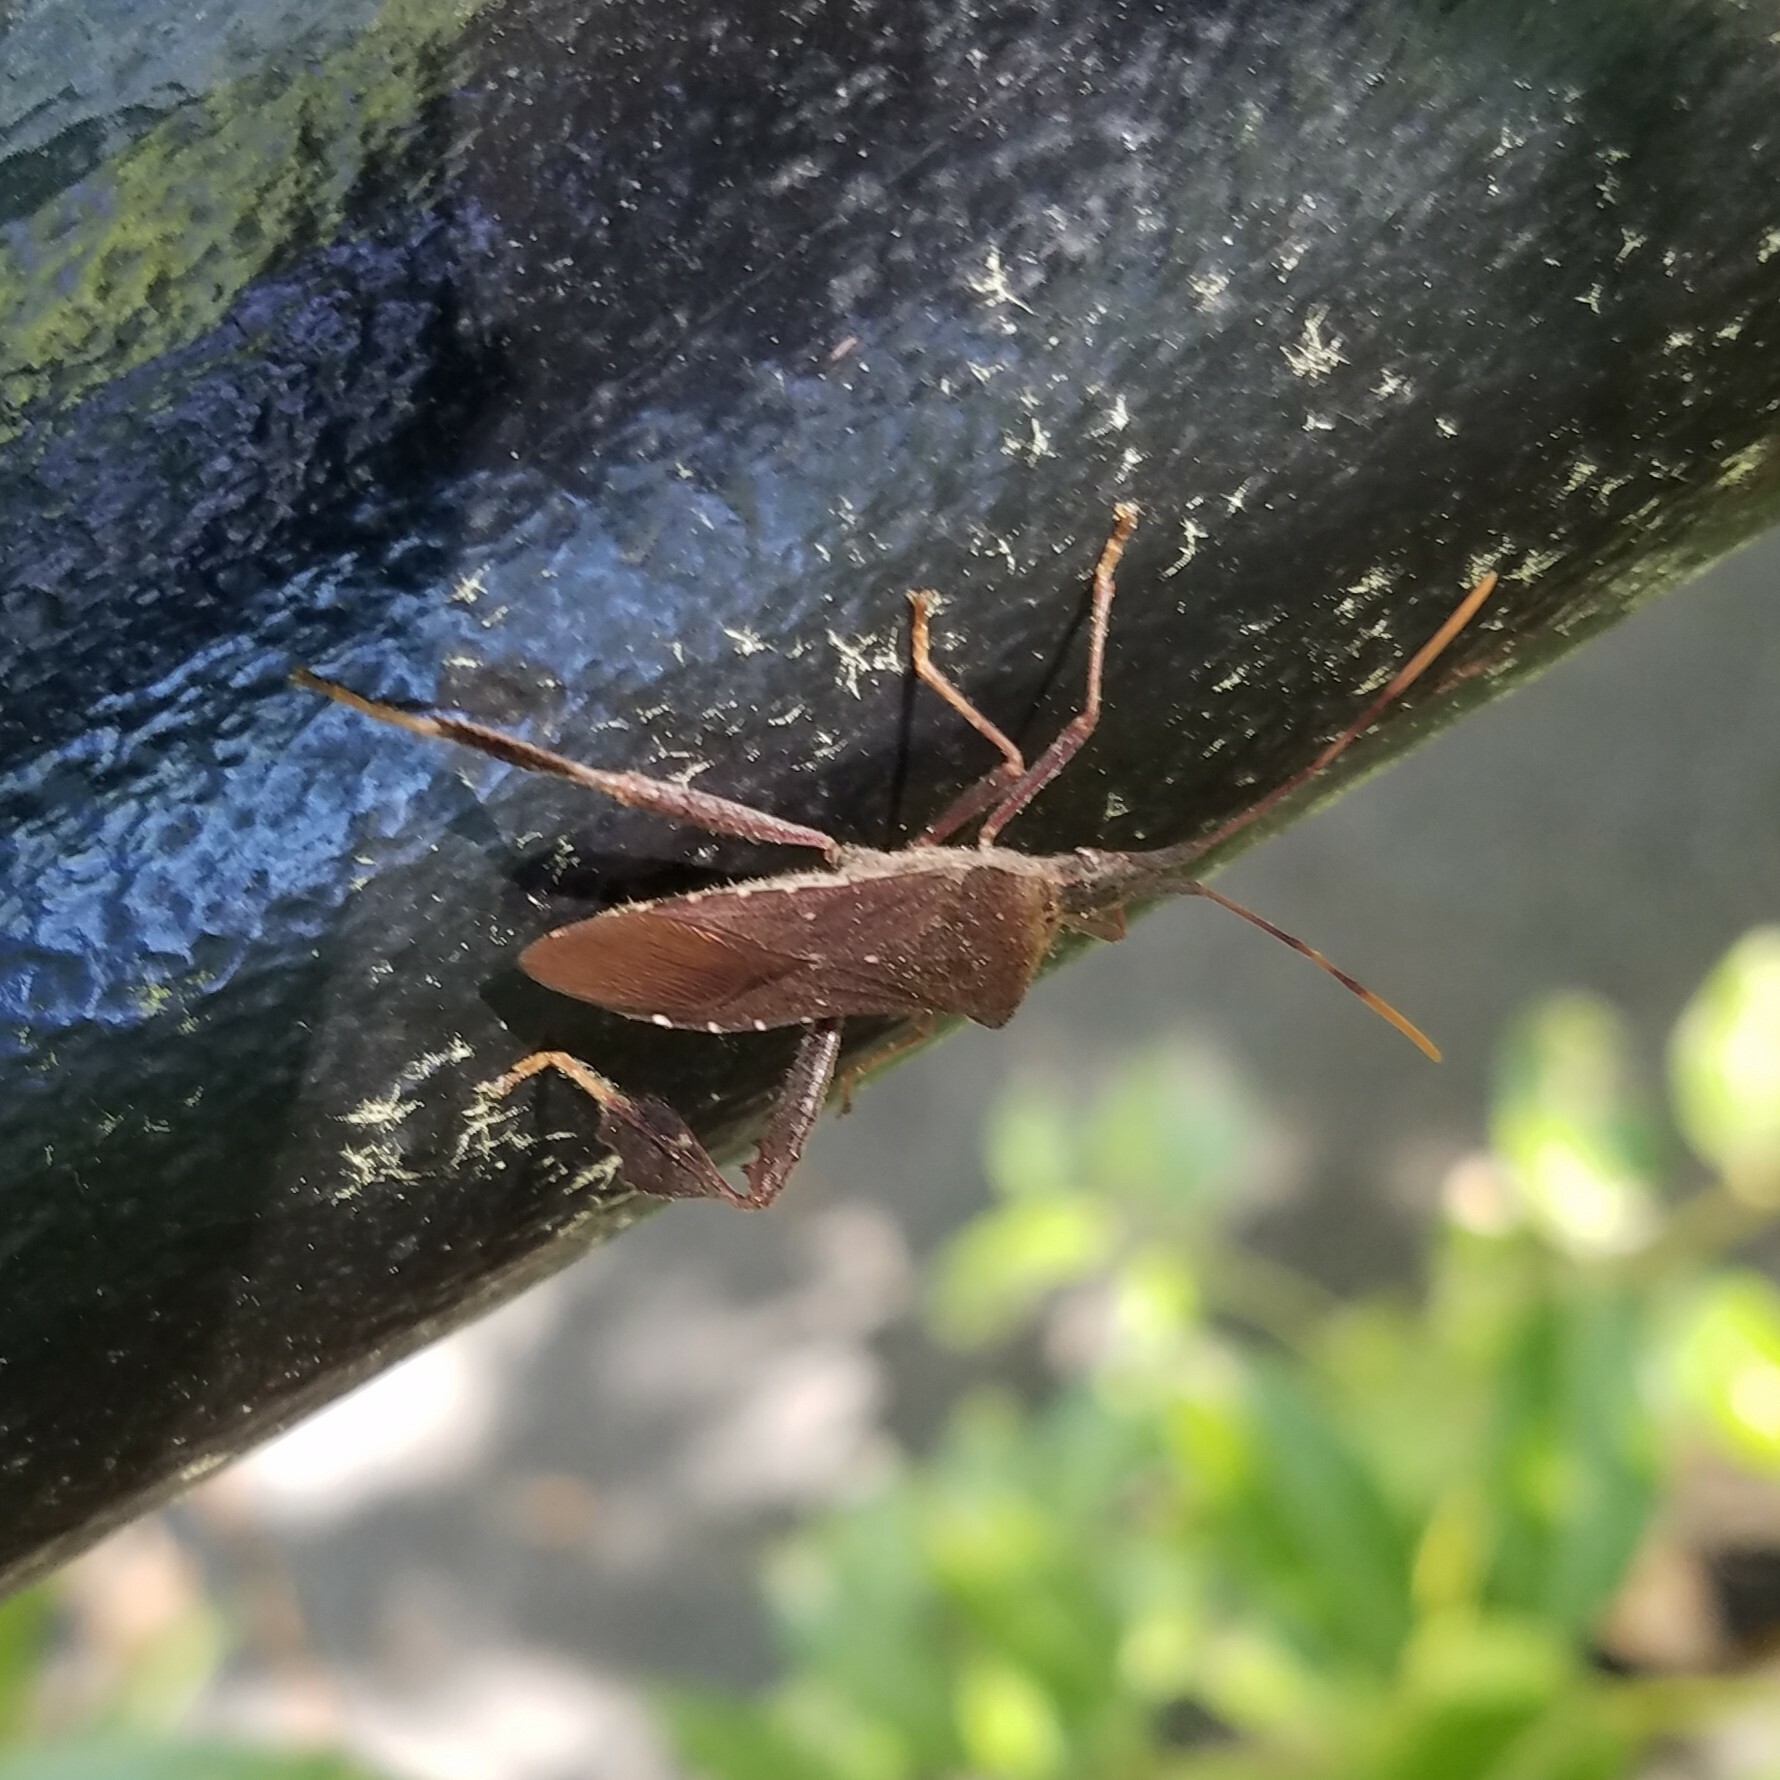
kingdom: Animalia
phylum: Arthropoda
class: Insecta
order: Hemiptera
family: Coreidae
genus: Leptoglossus
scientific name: Leptoglossus oppositus
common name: Northern leaf-footed bug
